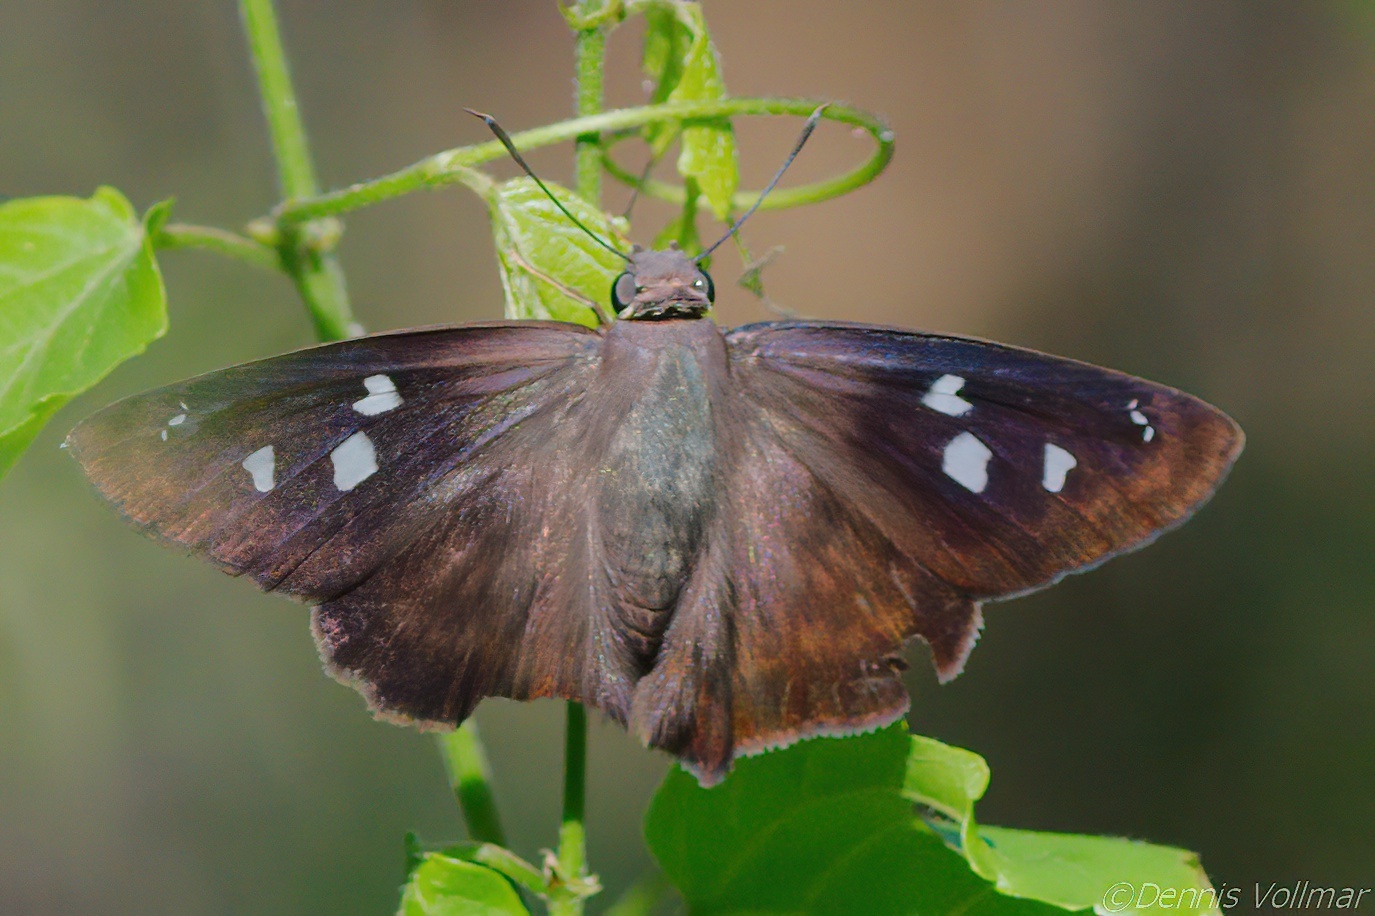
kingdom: Animalia
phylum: Arthropoda
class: Insecta
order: Lepidoptera
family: Hesperiidae
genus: Polygonus
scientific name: Polygonus leo
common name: Hammoch skipper
